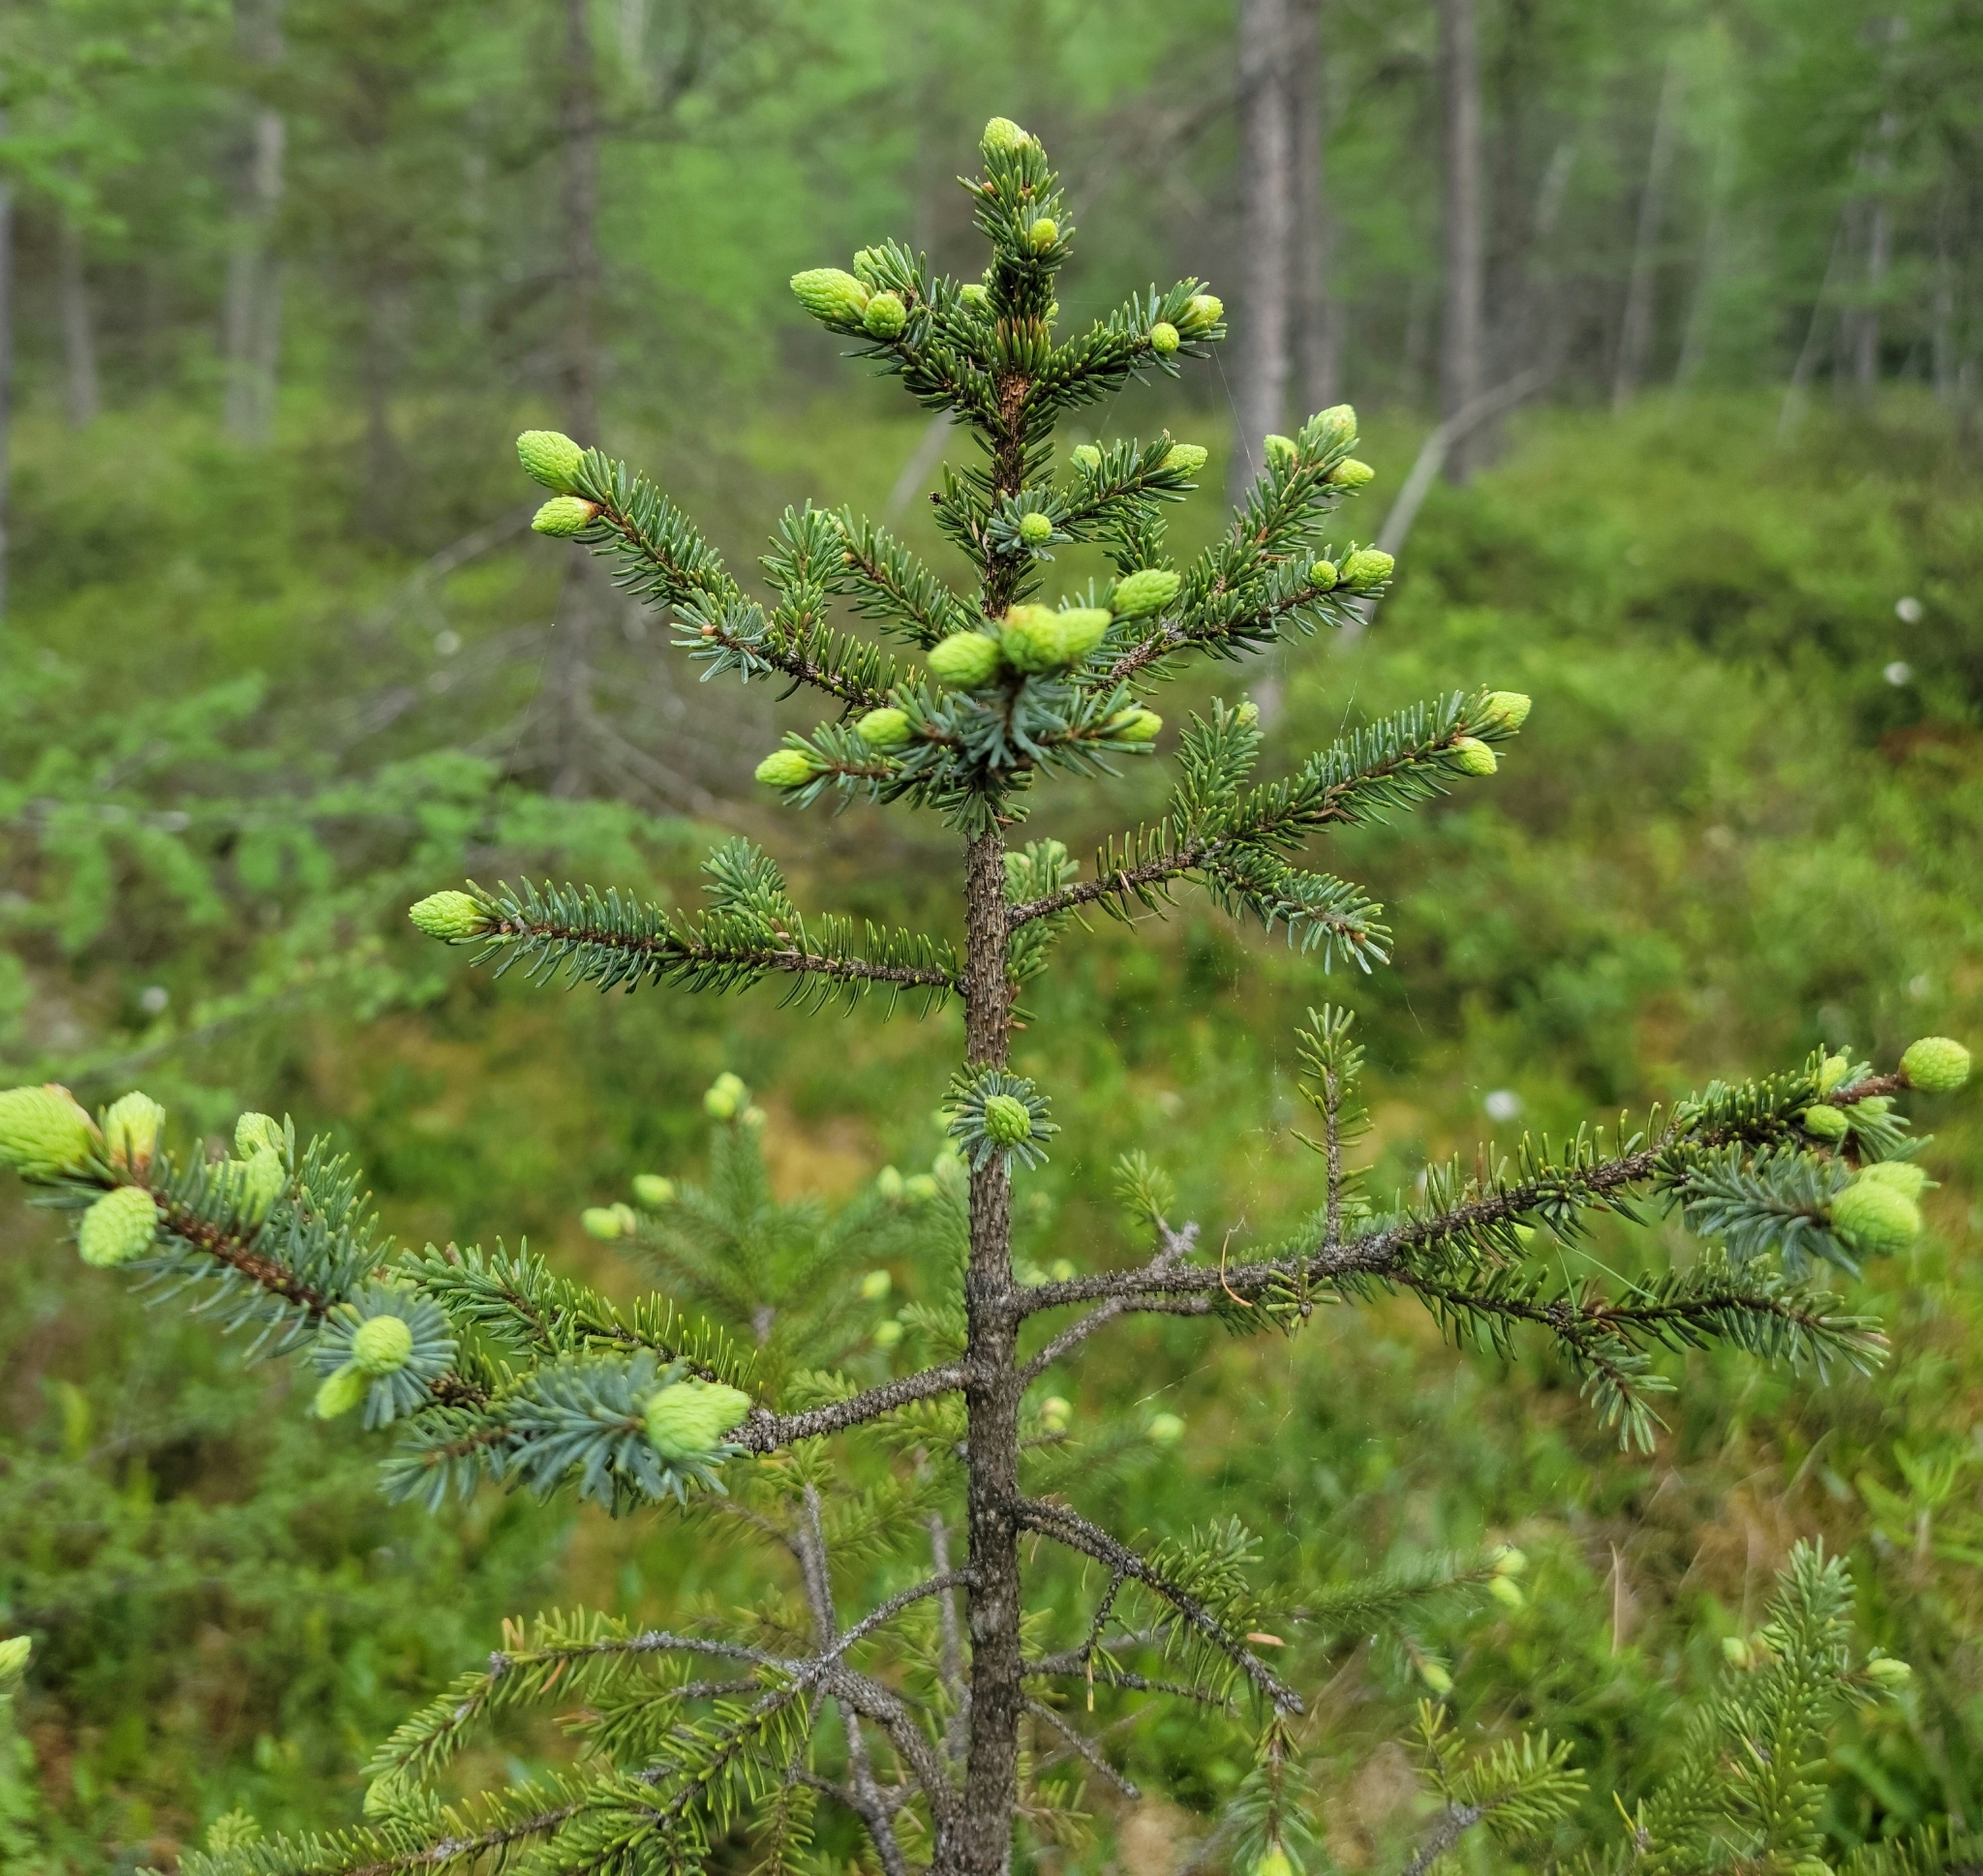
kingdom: Plantae
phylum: Tracheophyta
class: Pinopsida
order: Pinales
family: Pinaceae
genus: Picea
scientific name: Picea mariana
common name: Black spruce
